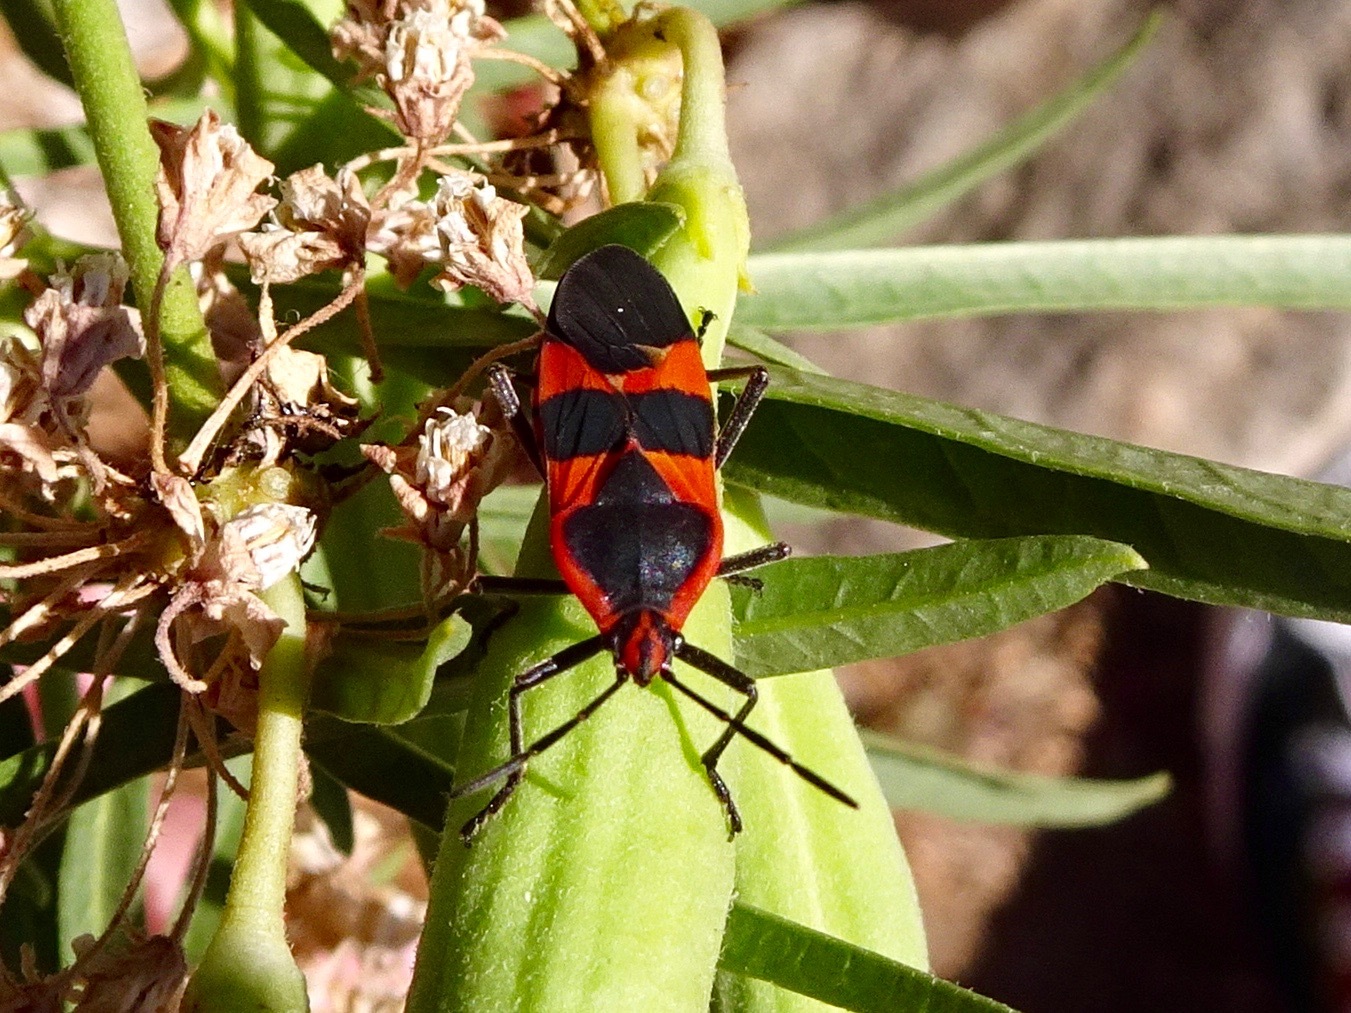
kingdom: Animalia
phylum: Arthropoda
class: Insecta
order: Hemiptera
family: Lygaeidae
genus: Oncopeltus
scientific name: Oncopeltus fasciatus
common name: Large milkweed bug
